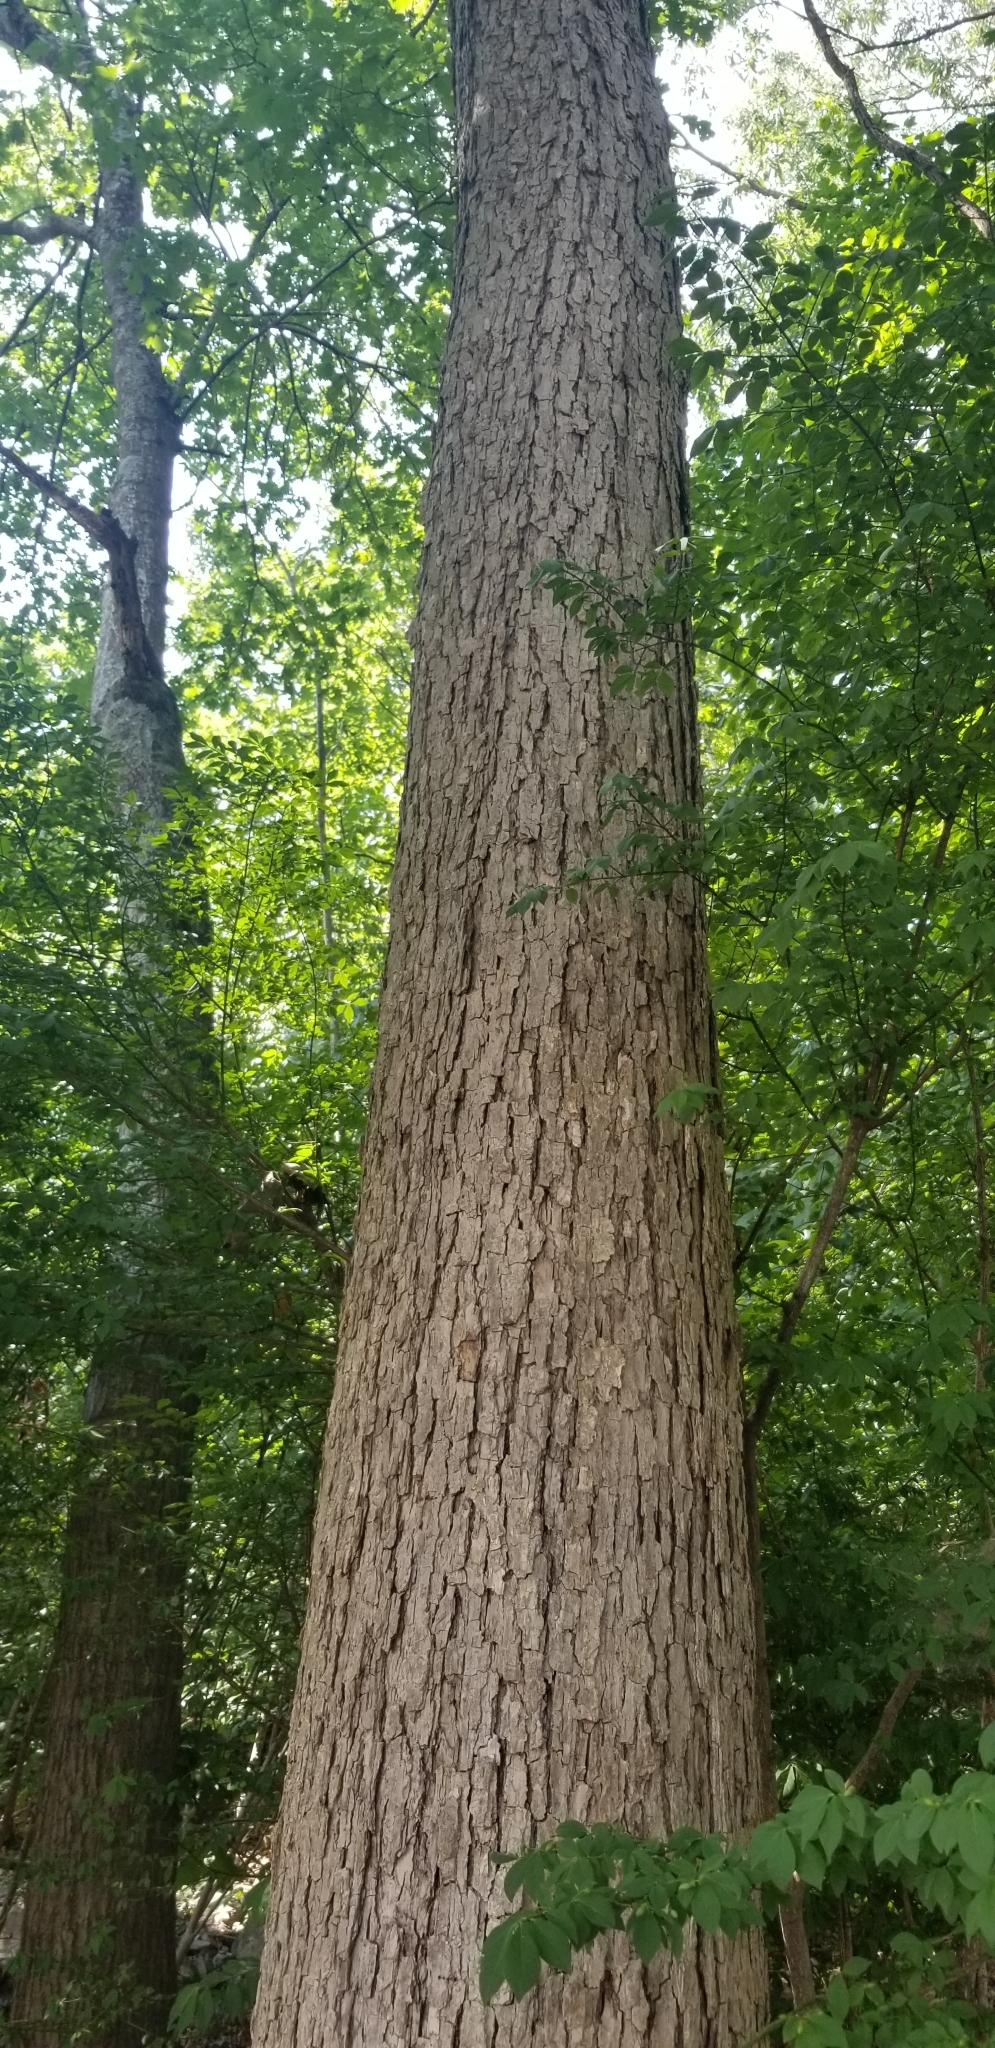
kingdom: Plantae
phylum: Tracheophyta
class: Magnoliopsida
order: Fagales
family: Fagaceae
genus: Quercus
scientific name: Quercus muehlenbergii
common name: Chinkapin oak
